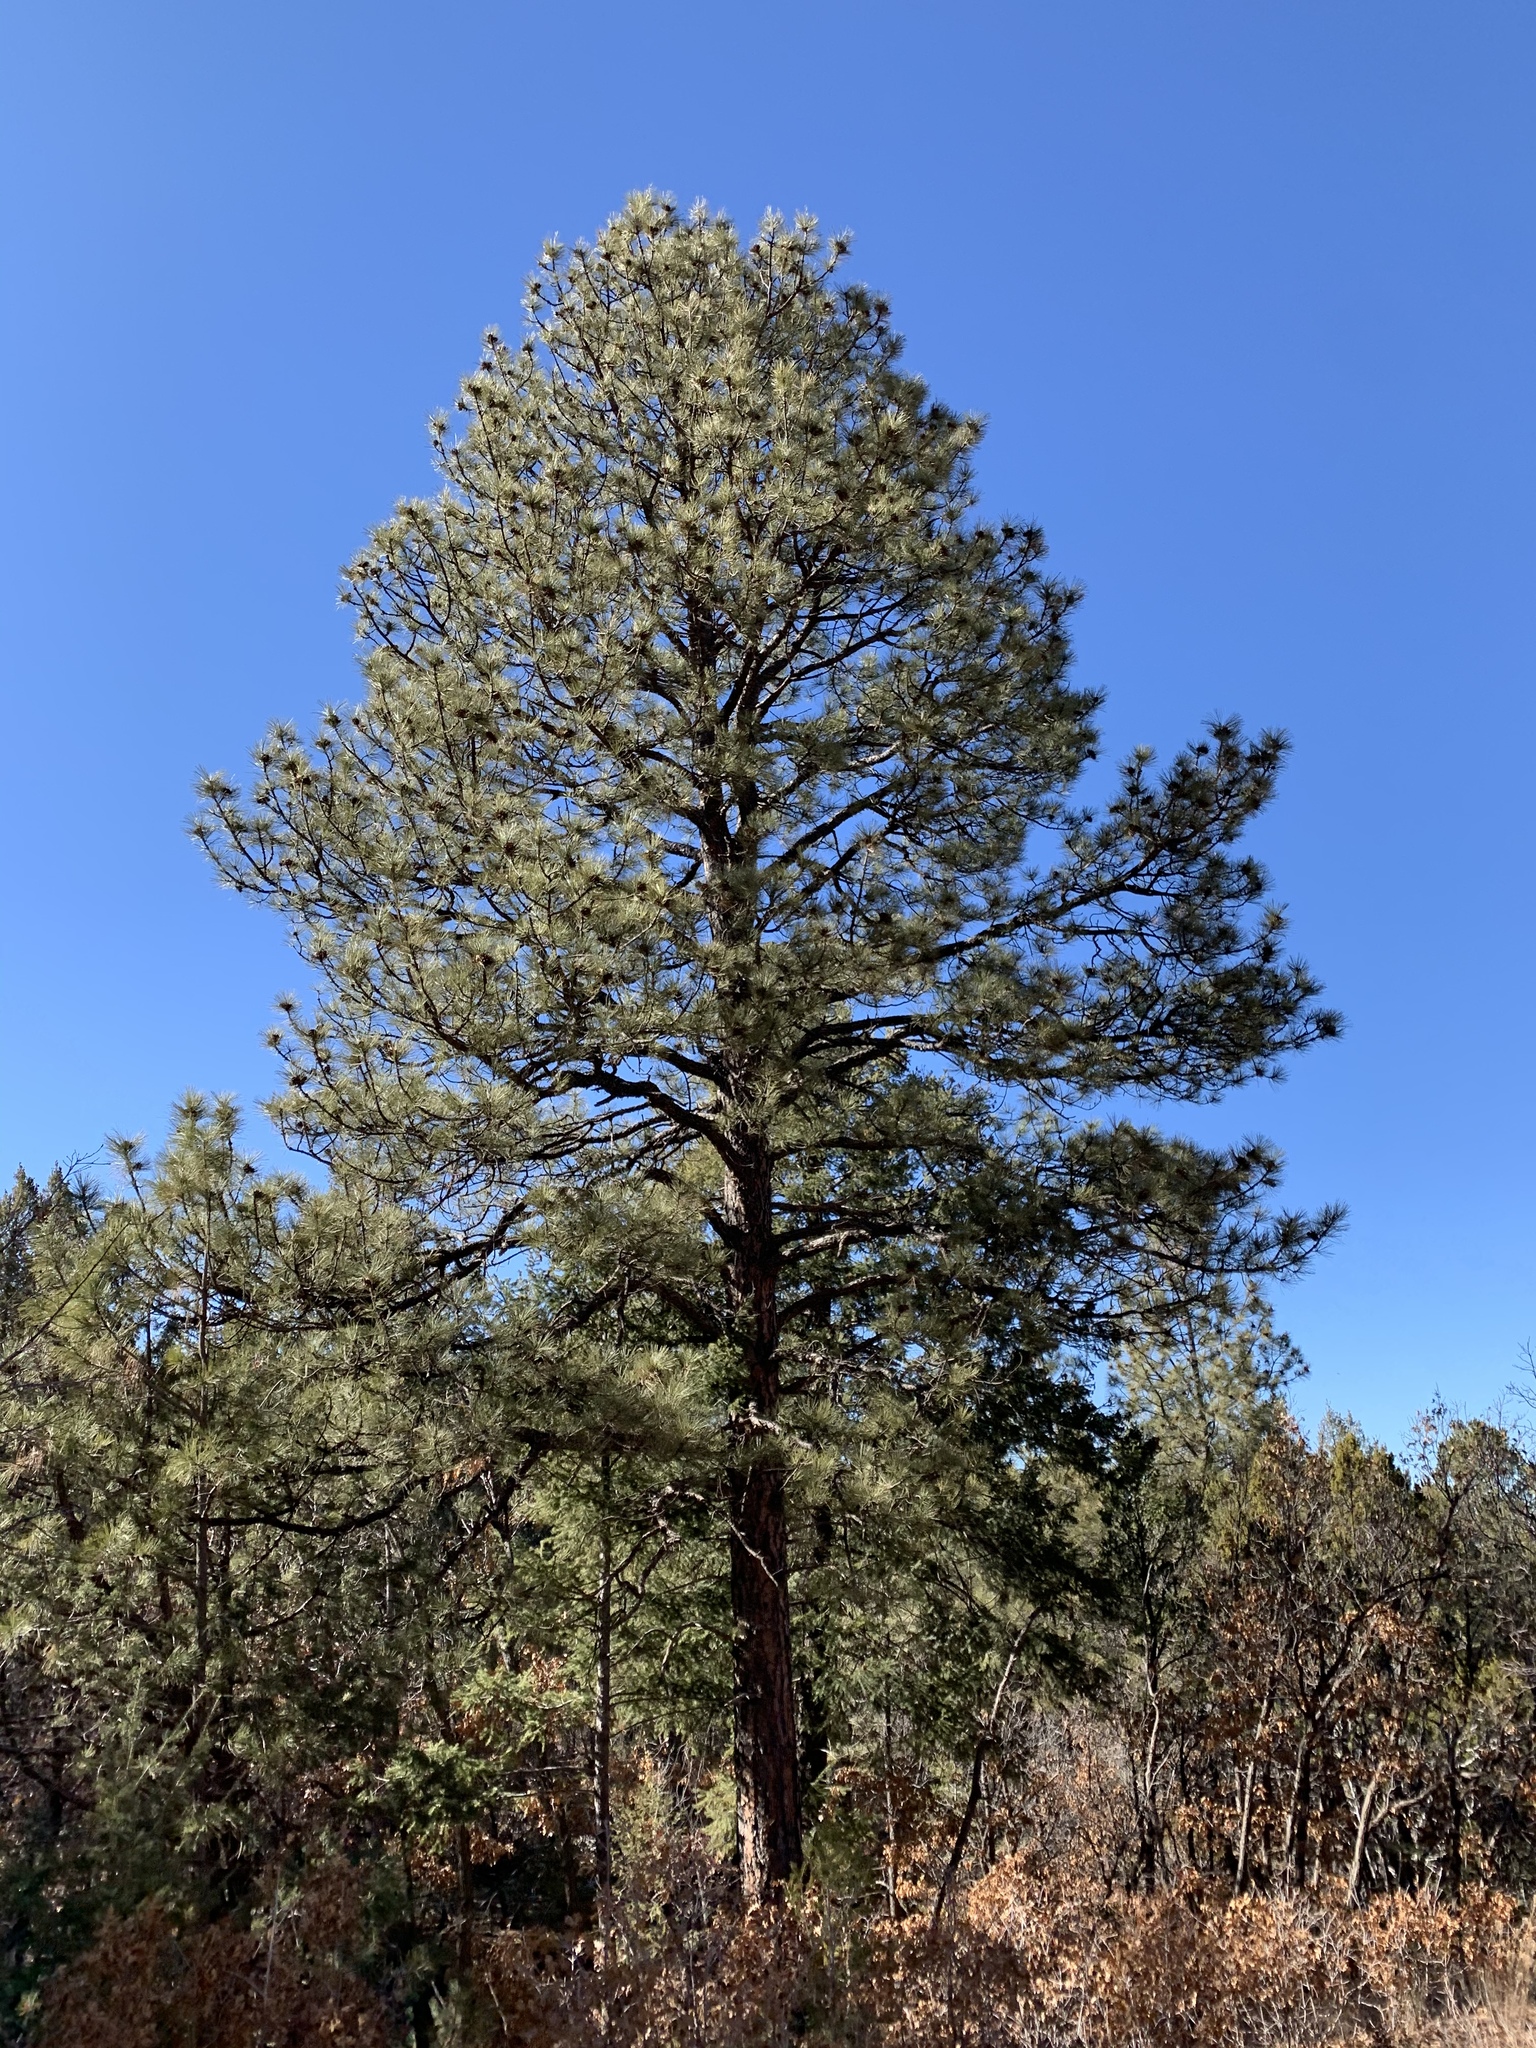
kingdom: Plantae
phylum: Tracheophyta
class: Pinopsida
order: Pinales
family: Pinaceae
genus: Pinus
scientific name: Pinus ponderosa
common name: Western yellow-pine
